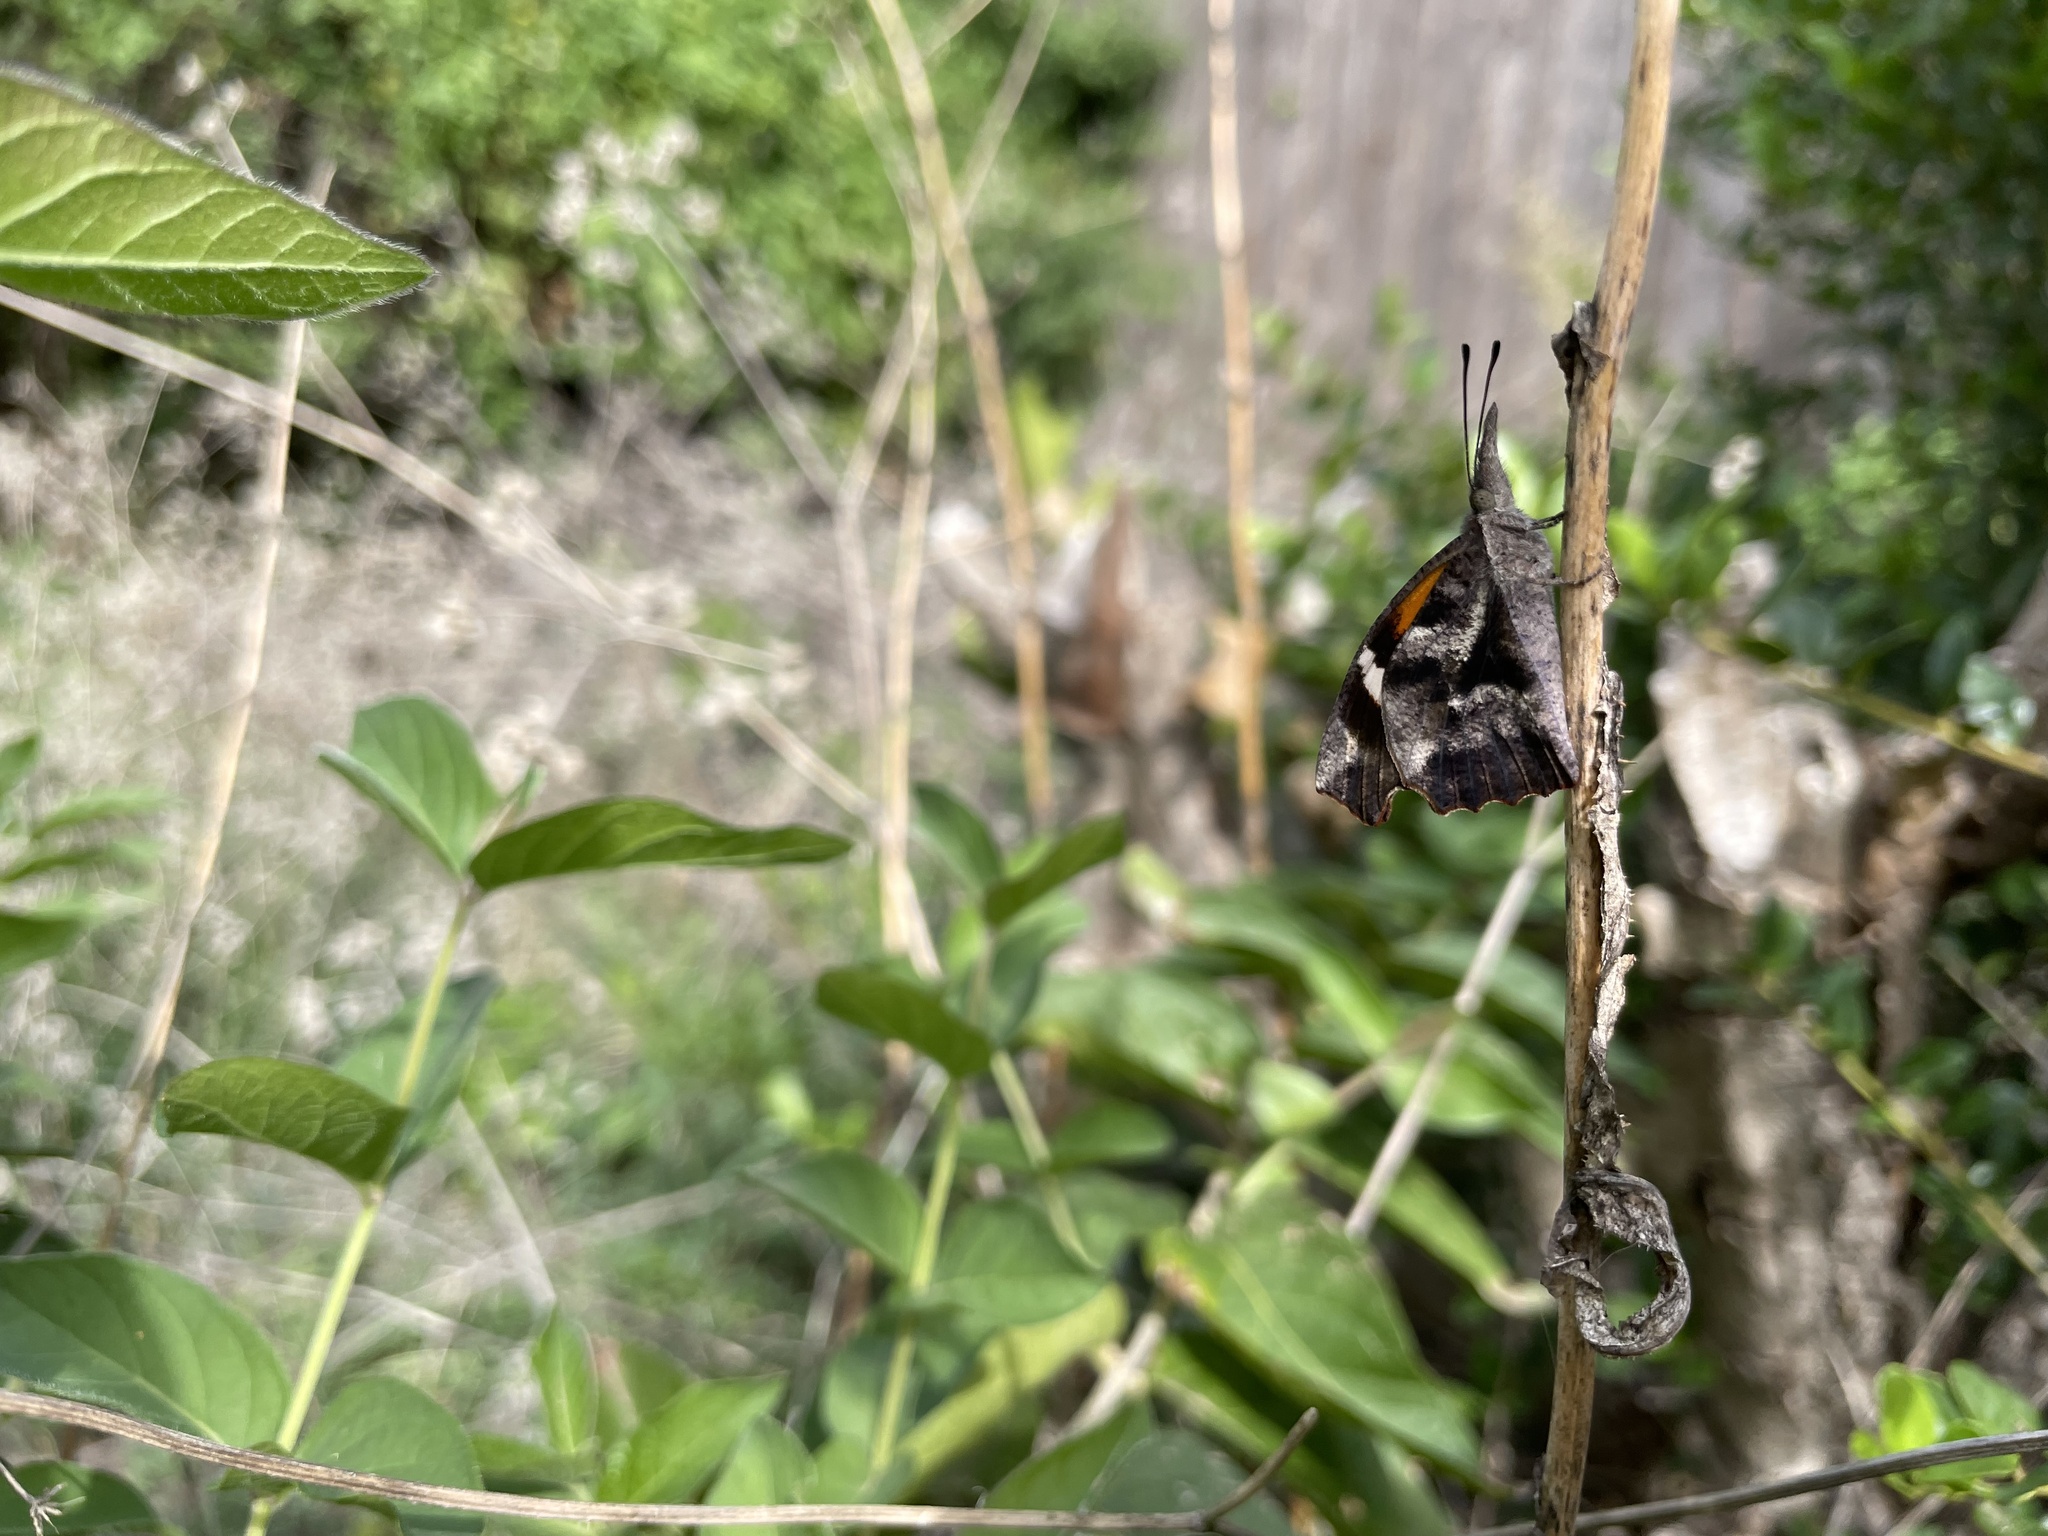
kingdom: Animalia
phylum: Arthropoda
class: Insecta
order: Lepidoptera
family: Nymphalidae
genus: Libytheana
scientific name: Libytheana carinenta
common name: American snout
